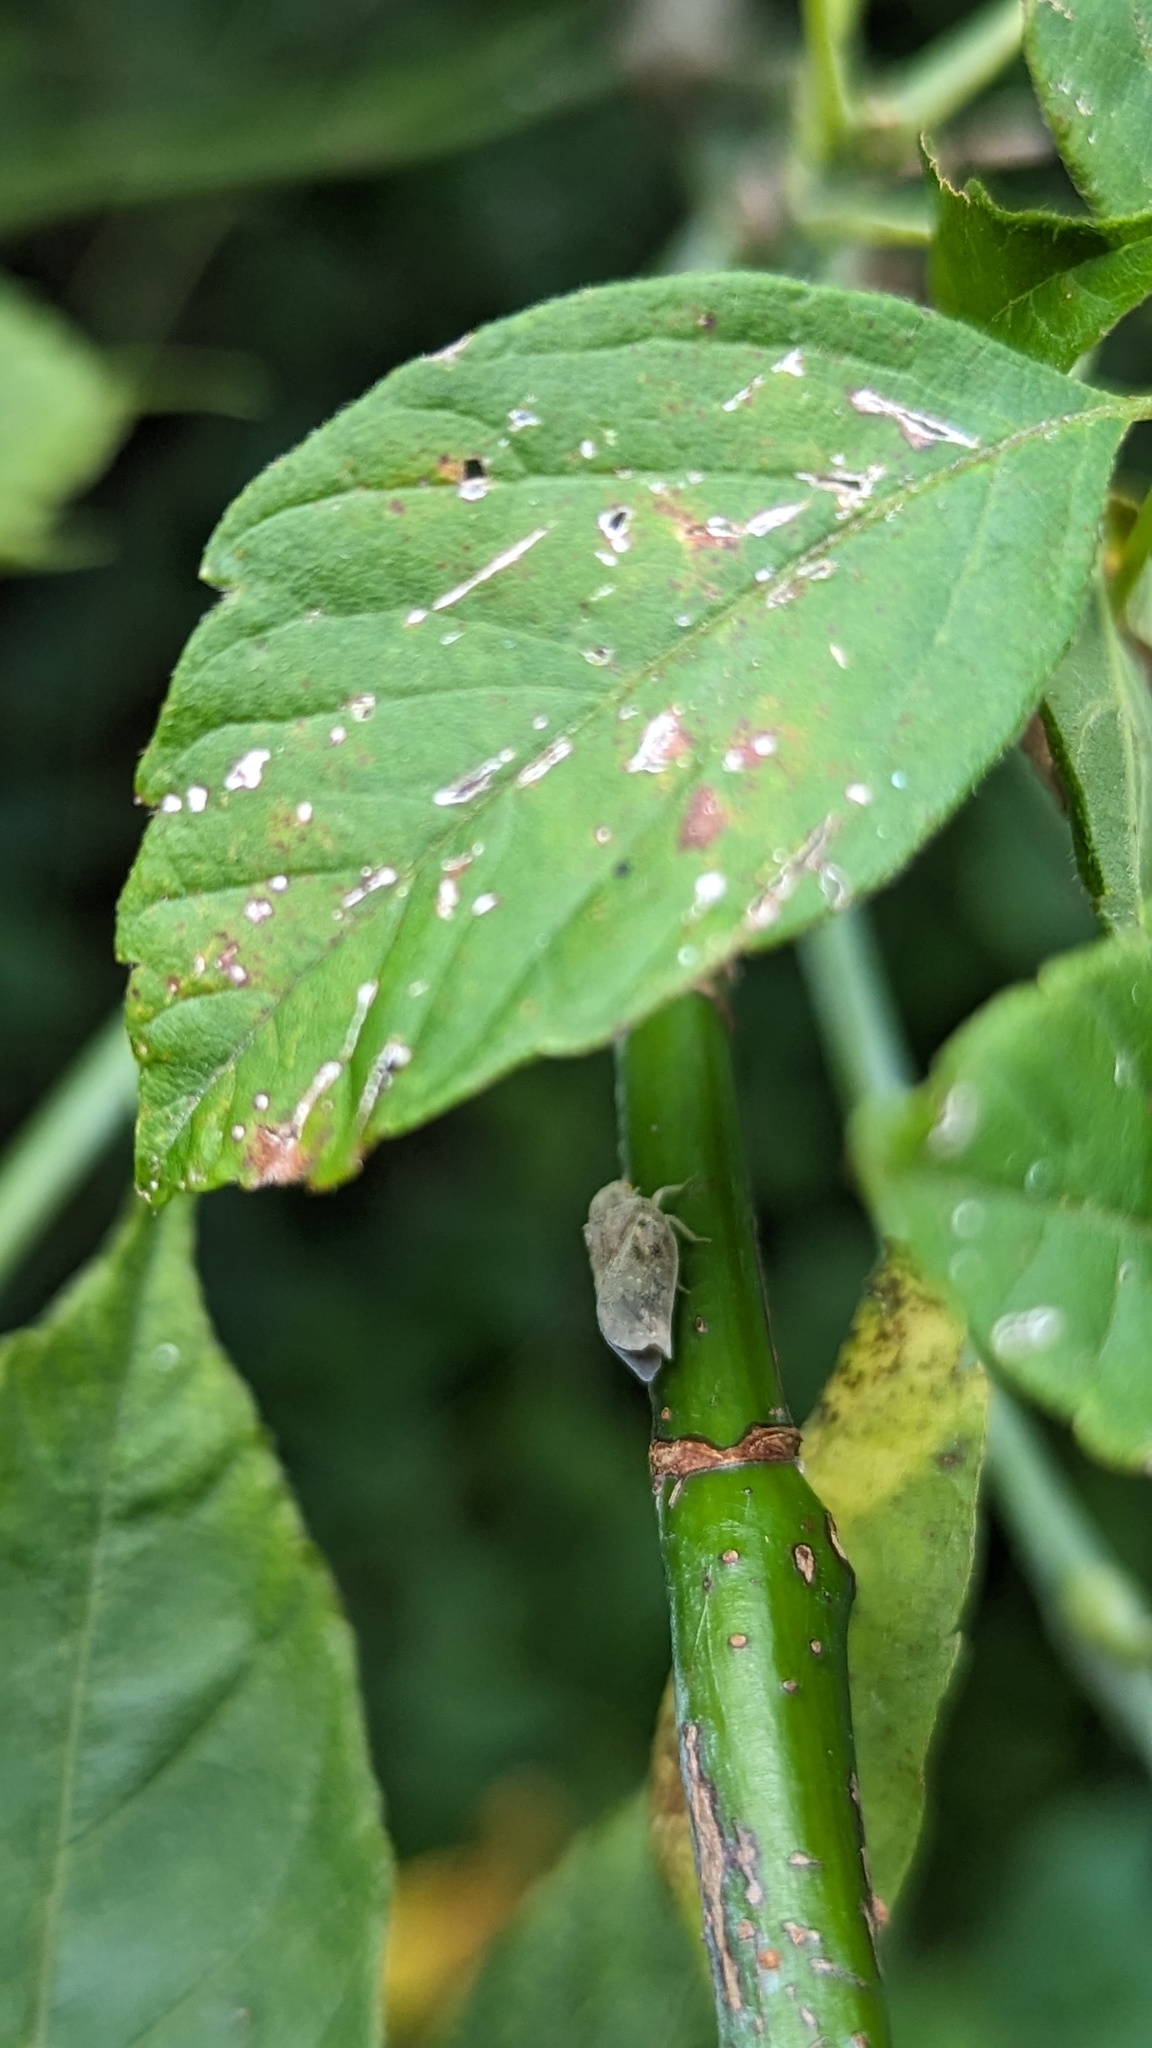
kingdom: Animalia
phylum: Arthropoda
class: Insecta
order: Hemiptera
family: Flatidae
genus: Metcalfa
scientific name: Metcalfa pruinosa
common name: Citrus flatid planthopper
